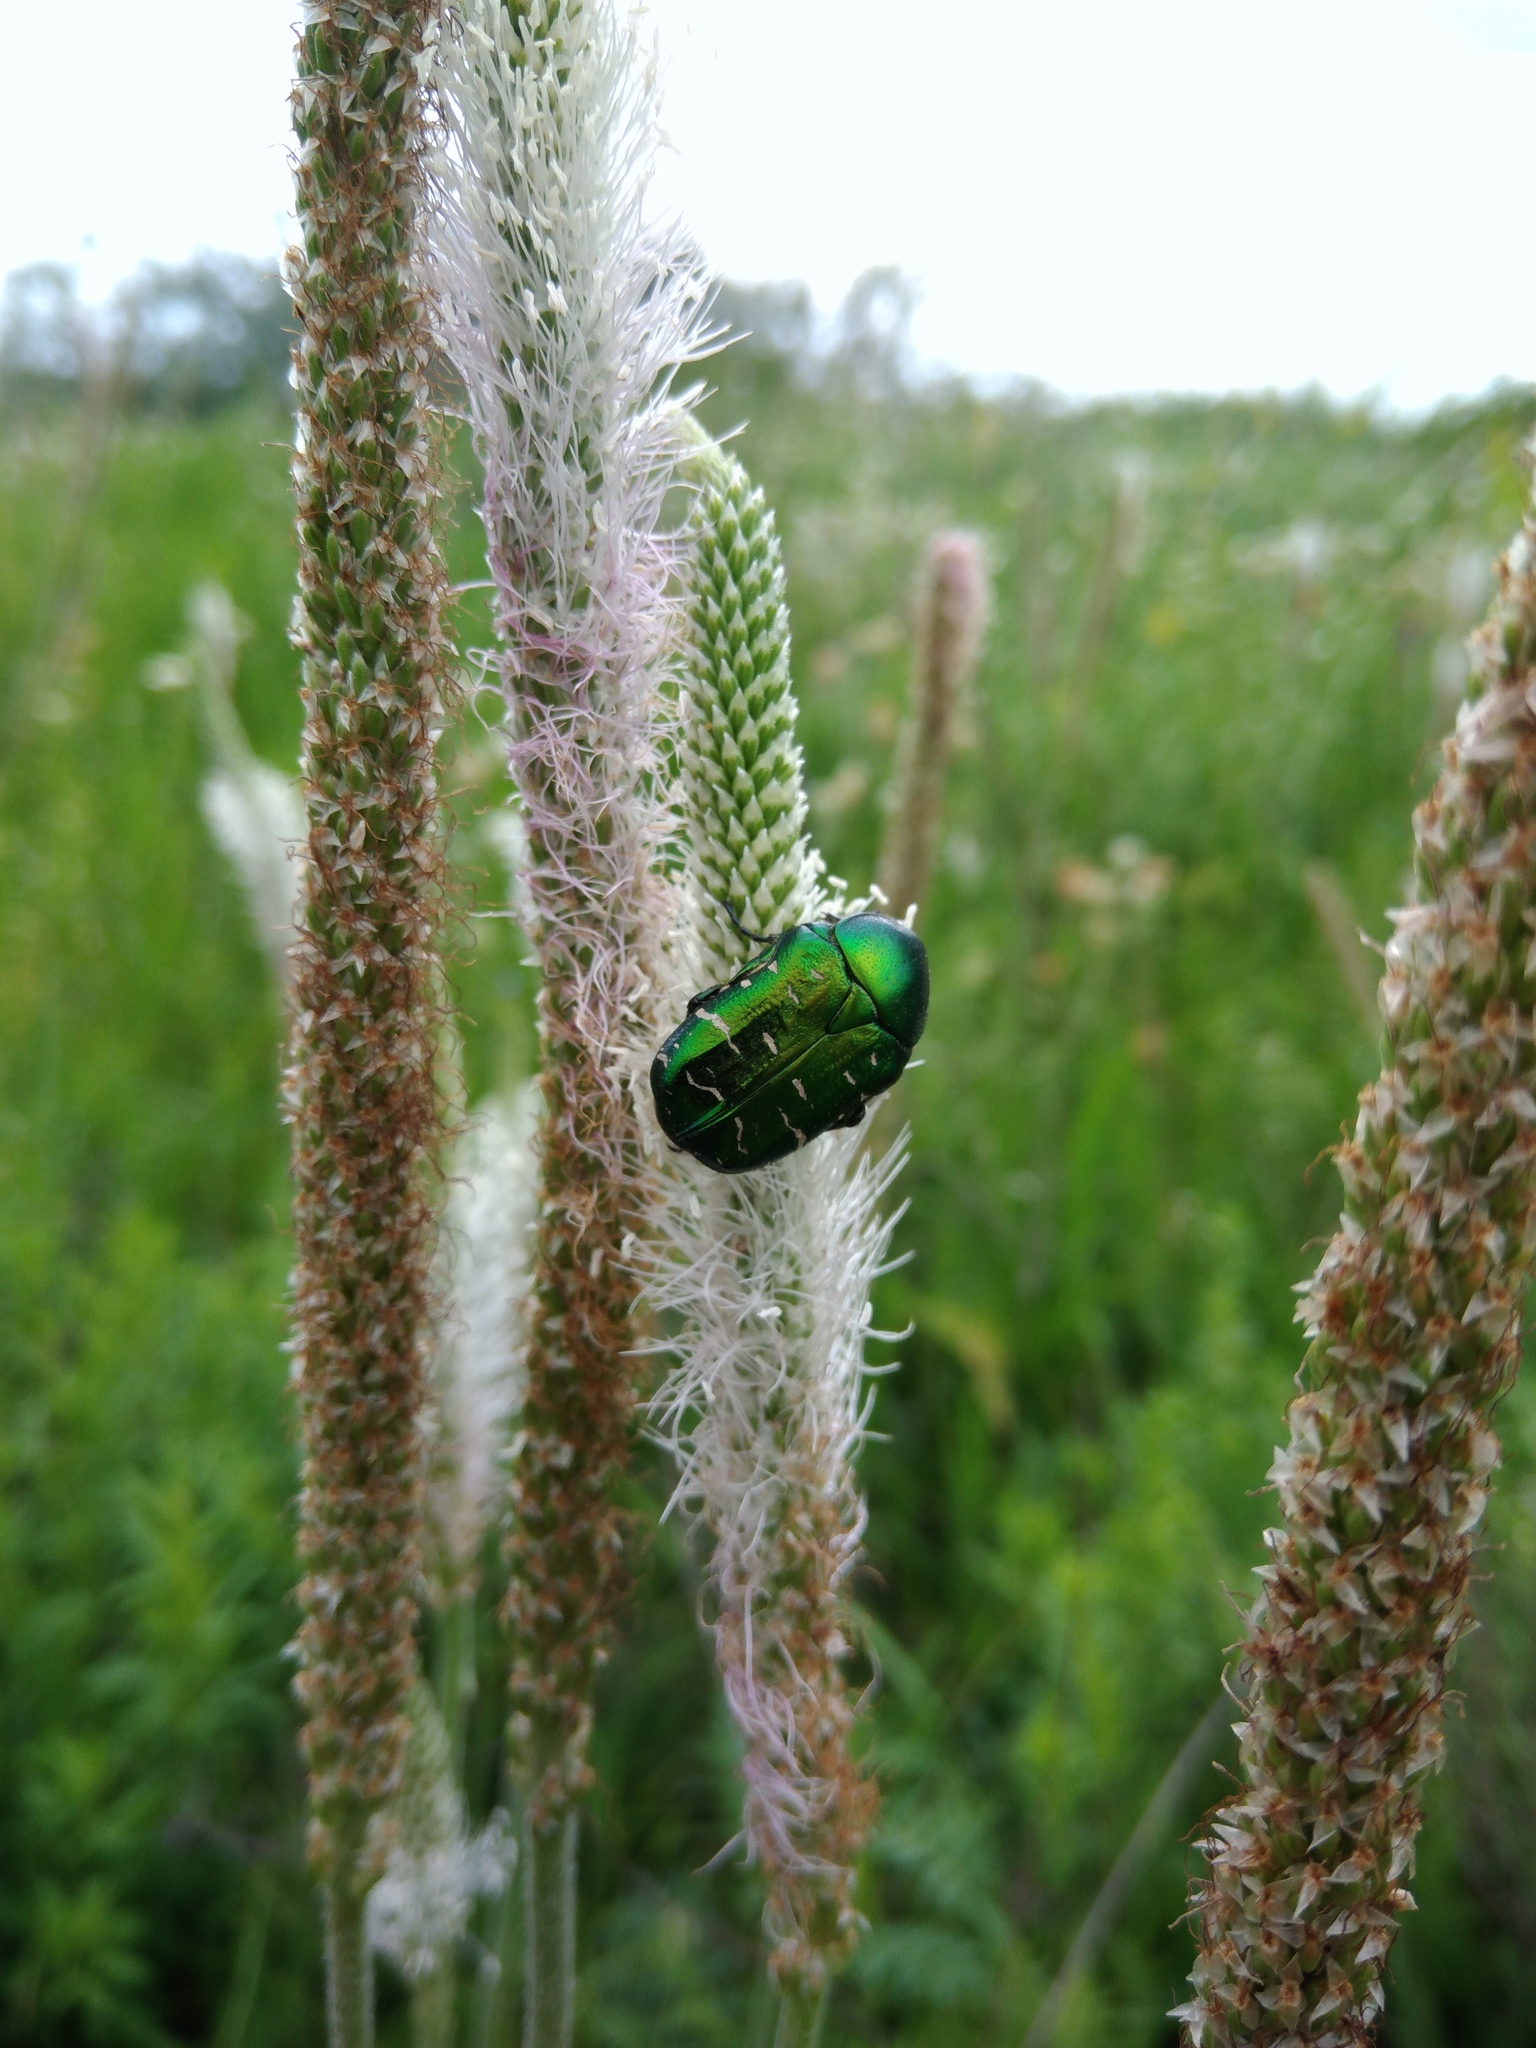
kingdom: Animalia
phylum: Arthropoda
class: Insecta
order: Coleoptera
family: Scarabaeidae
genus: Cetonia
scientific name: Cetonia aurata
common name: Rose chafer
